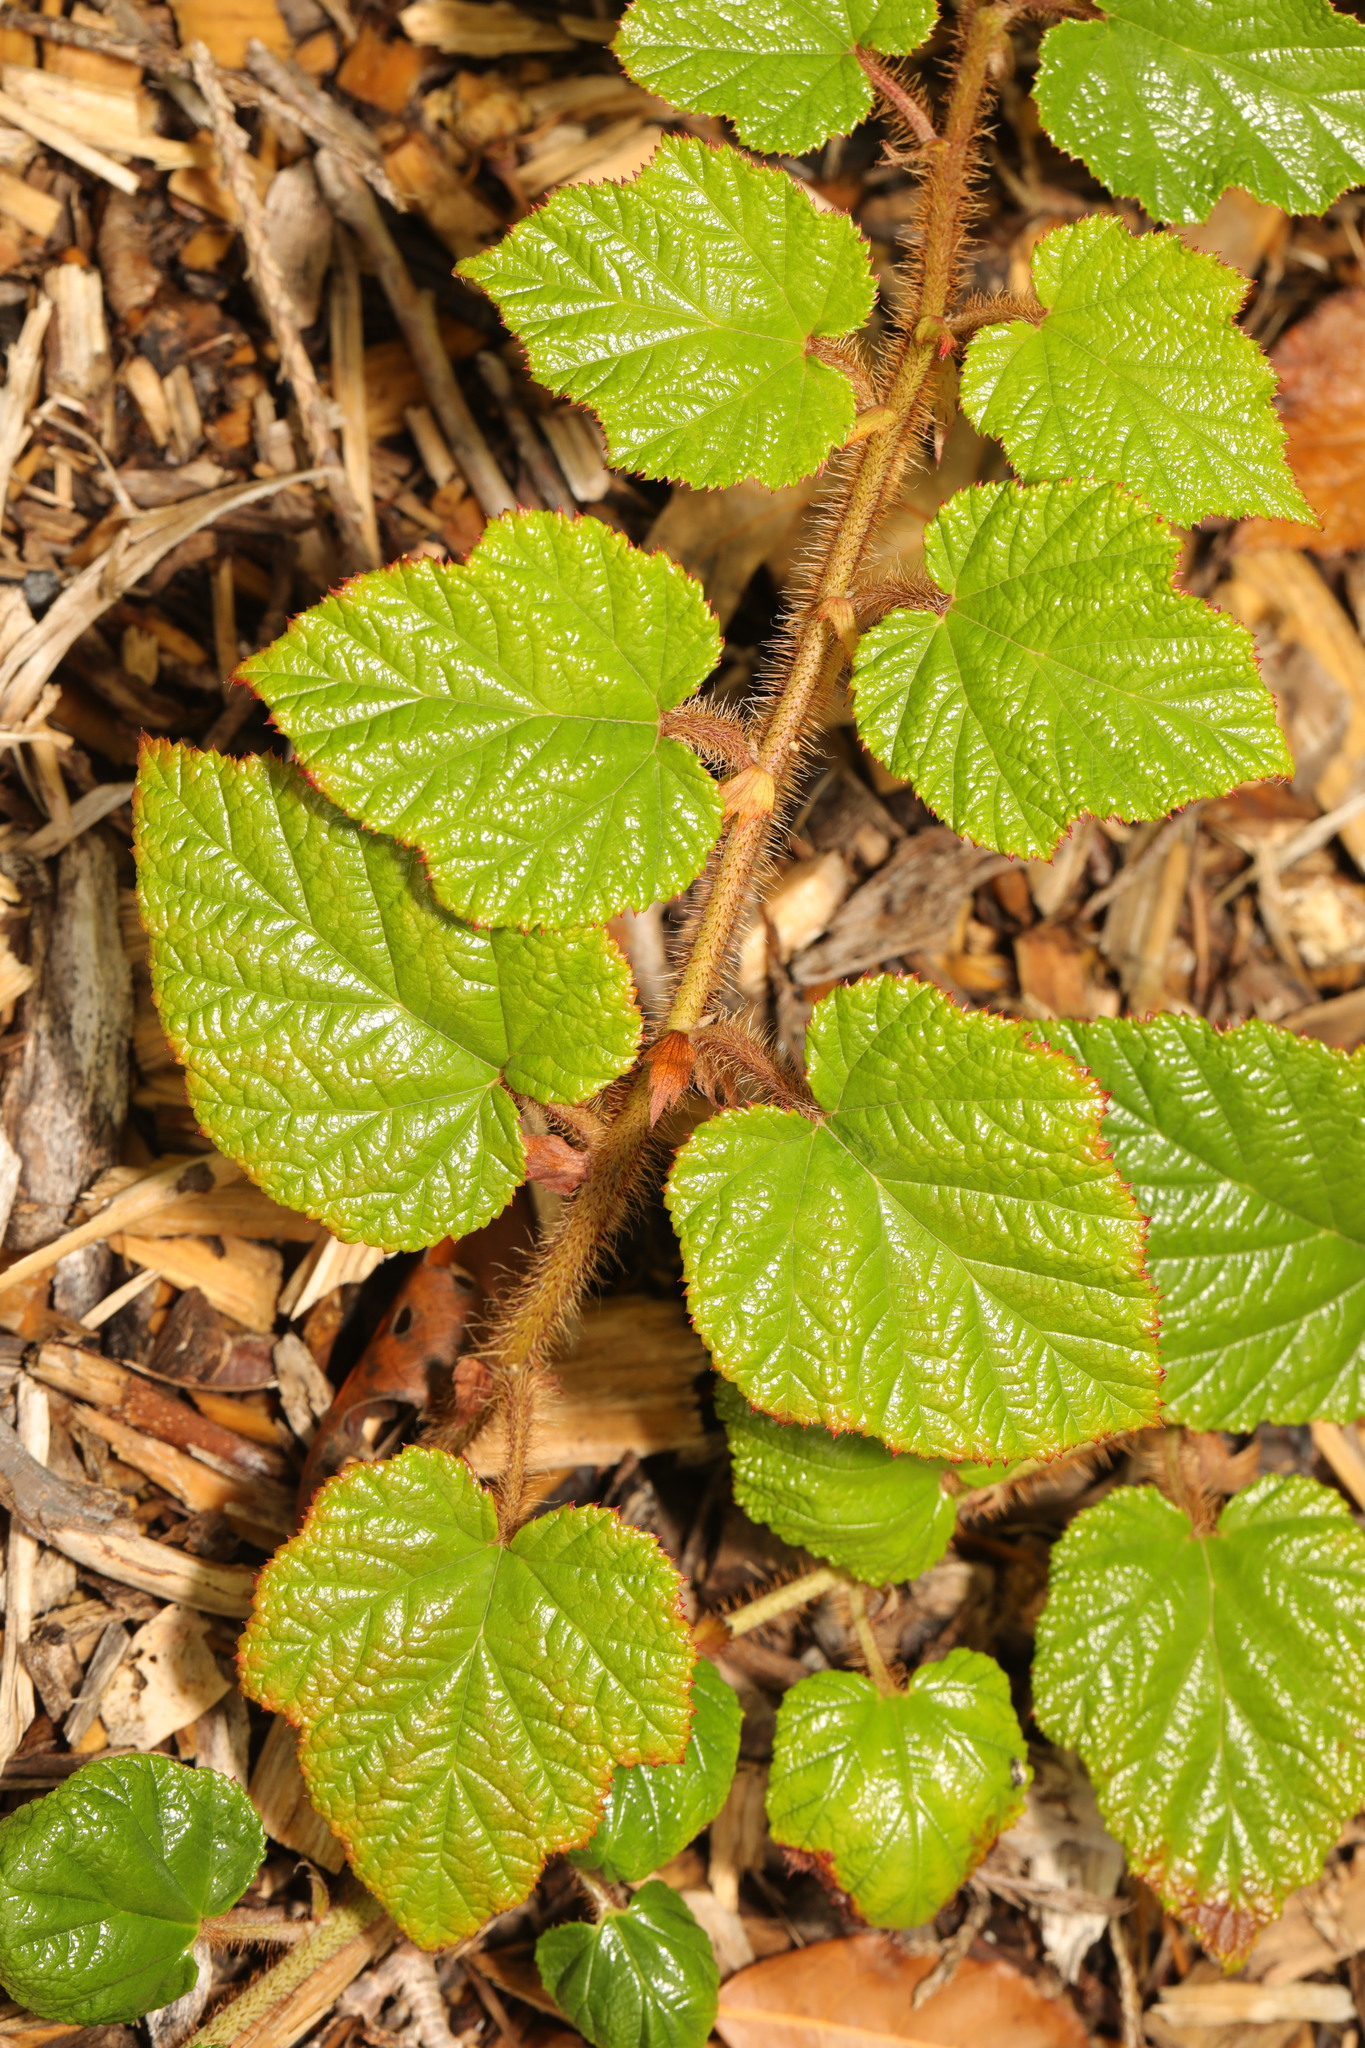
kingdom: Plantae
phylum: Tracheophyta
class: Magnoliopsida
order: Rosales
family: Rosaceae
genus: Rubus
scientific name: Rubus tricolor
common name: Chinese bramble
